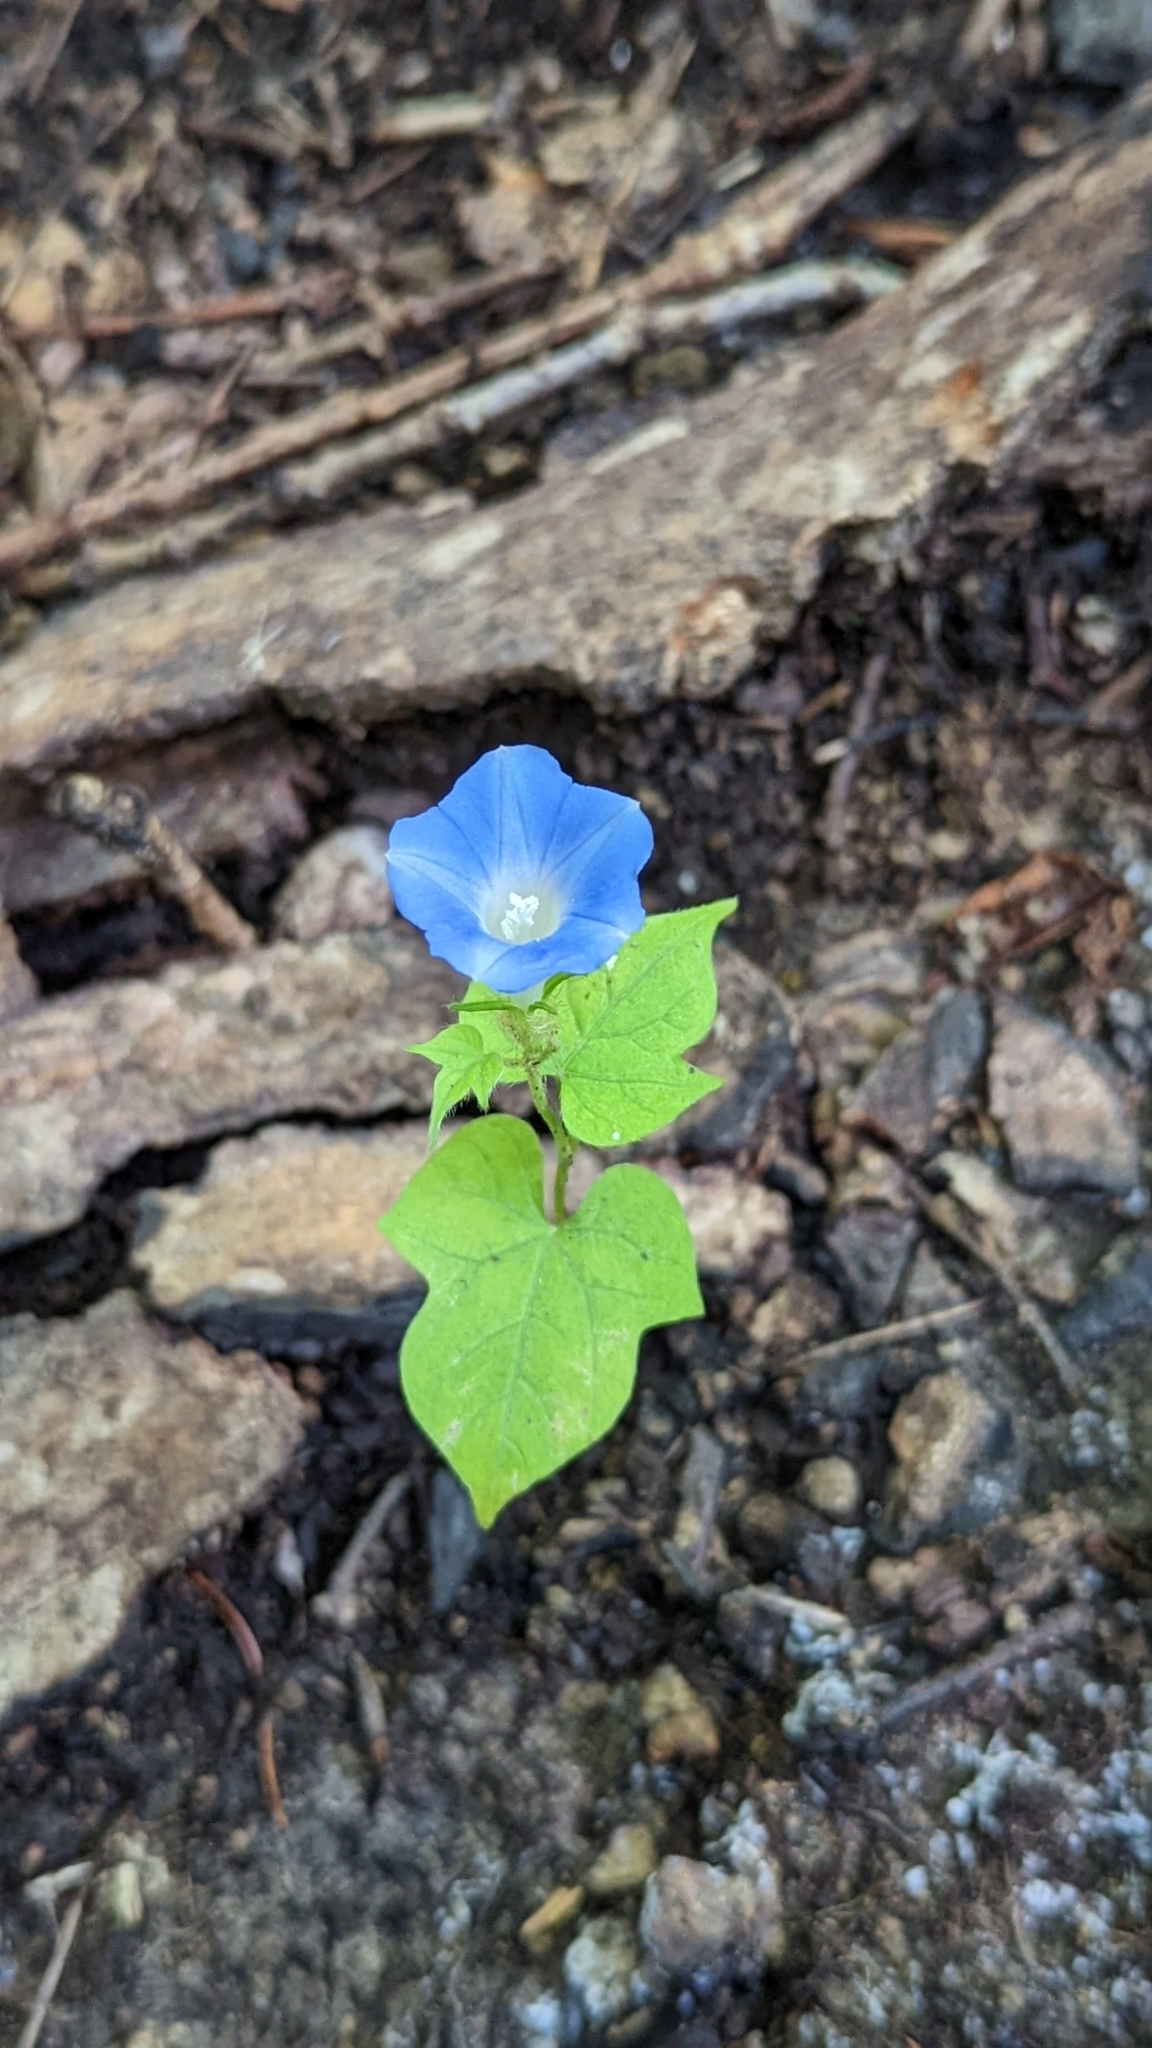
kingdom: Plantae
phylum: Tracheophyta
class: Magnoliopsida
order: Solanales
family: Convolvulaceae
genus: Ipomoea
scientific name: Ipomoea hederacea
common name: Ivy-leaved morning-glory
